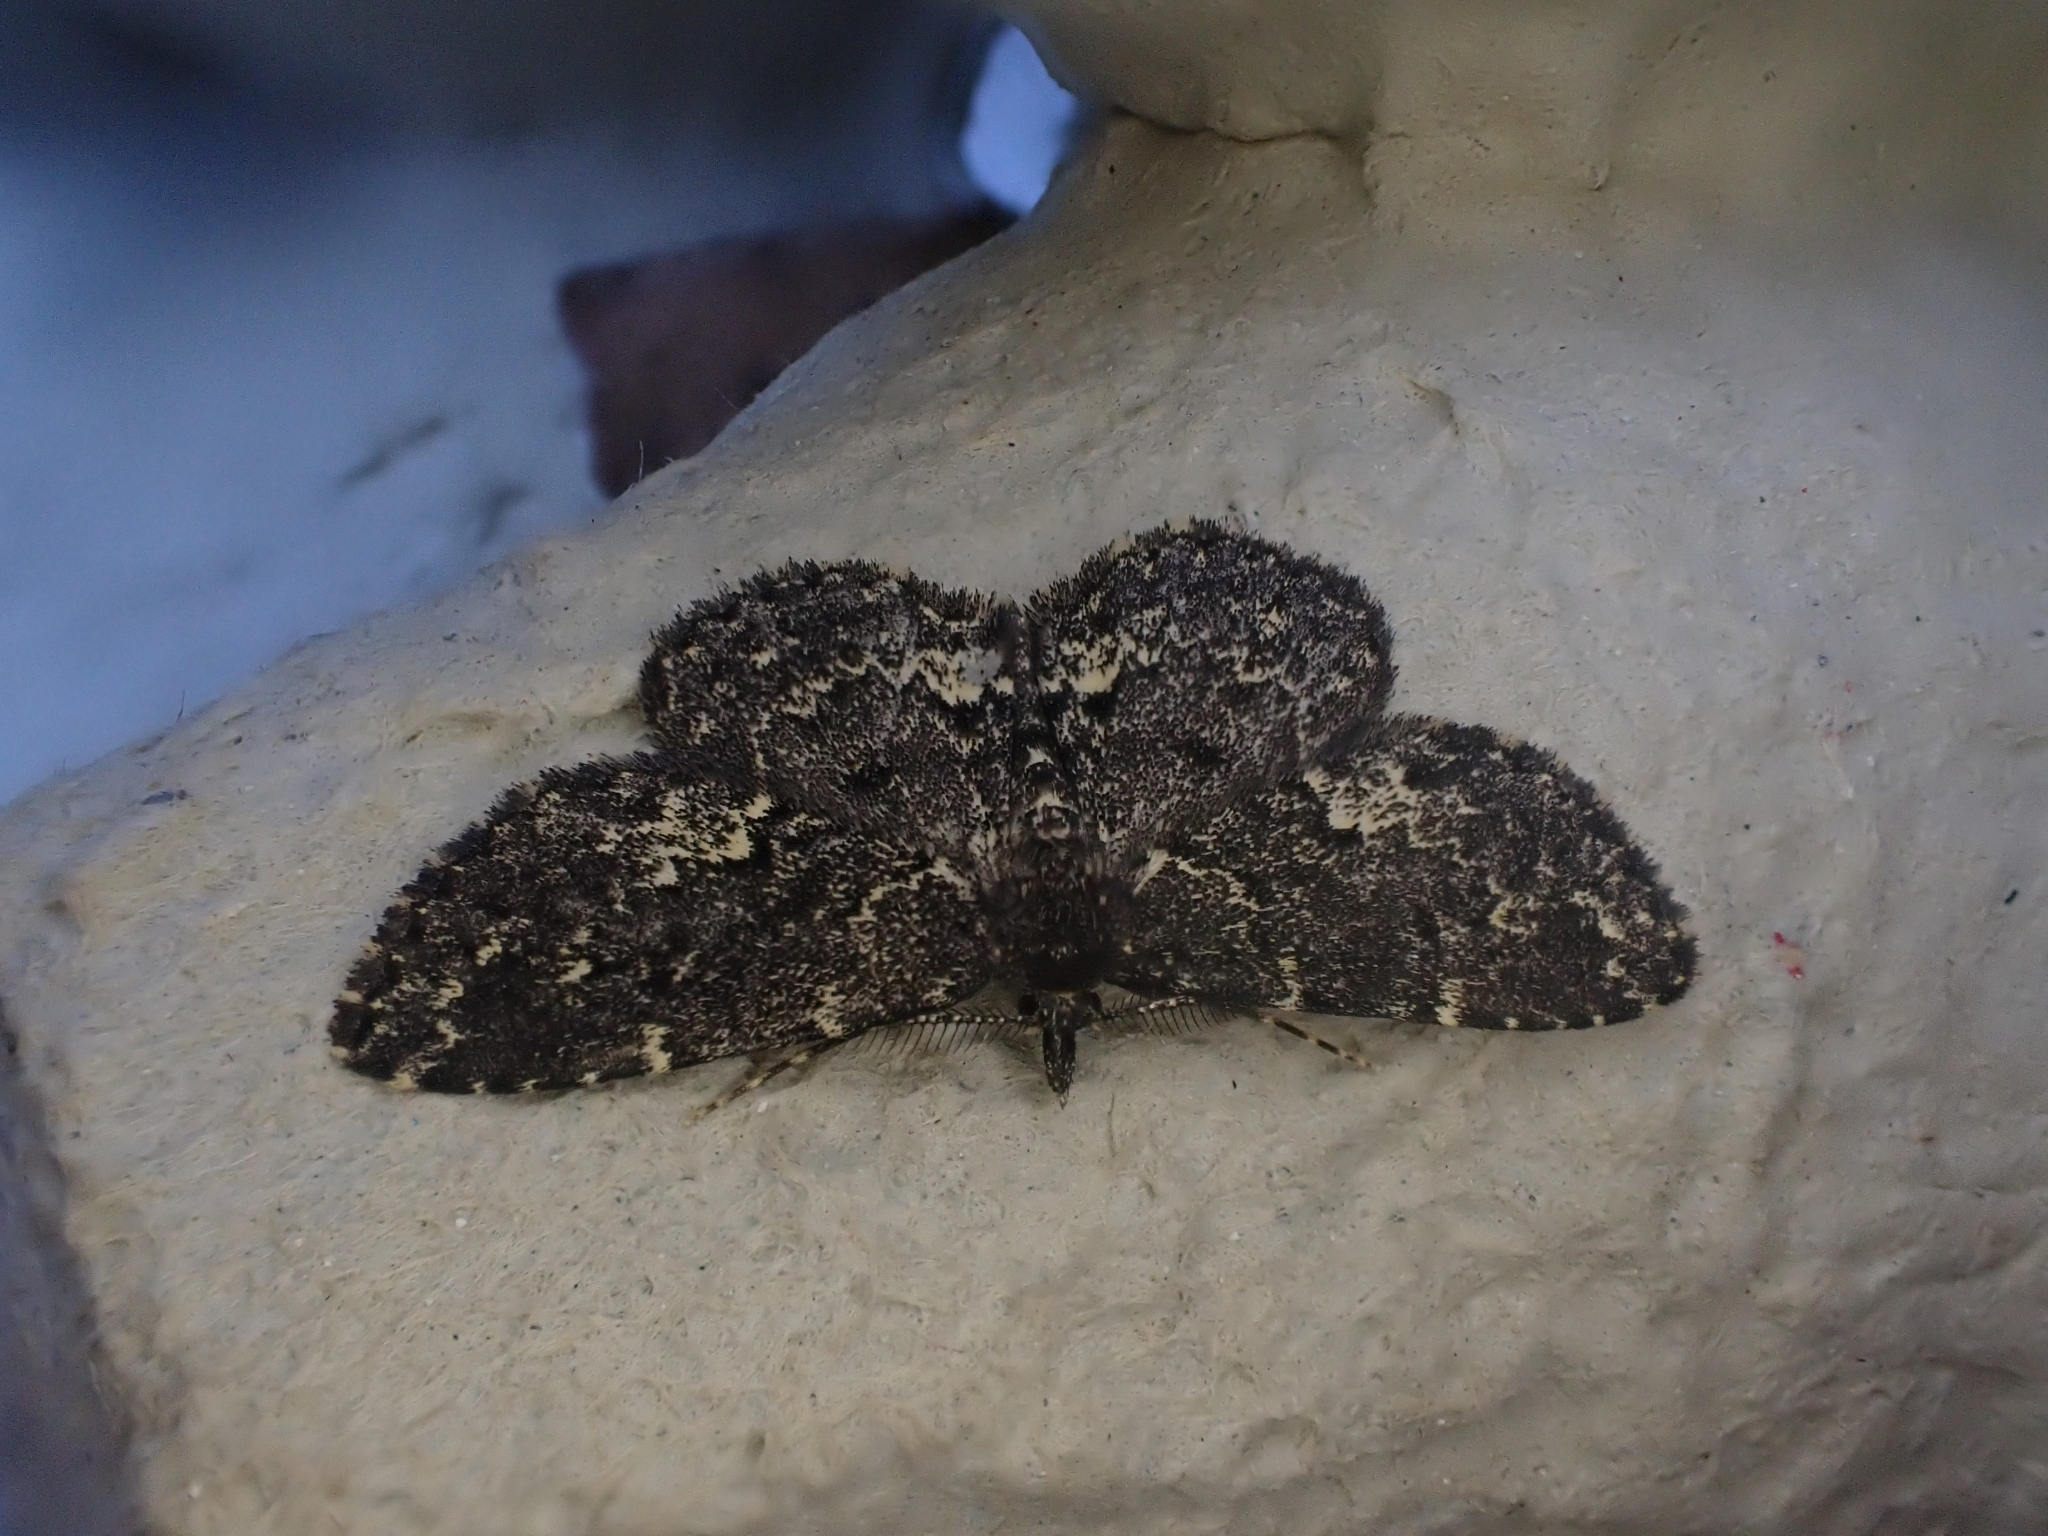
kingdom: Animalia
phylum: Arthropoda
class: Insecta
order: Lepidoptera
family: Erebidae
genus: Parascotia
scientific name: Parascotia fuliginaria
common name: Waved black
